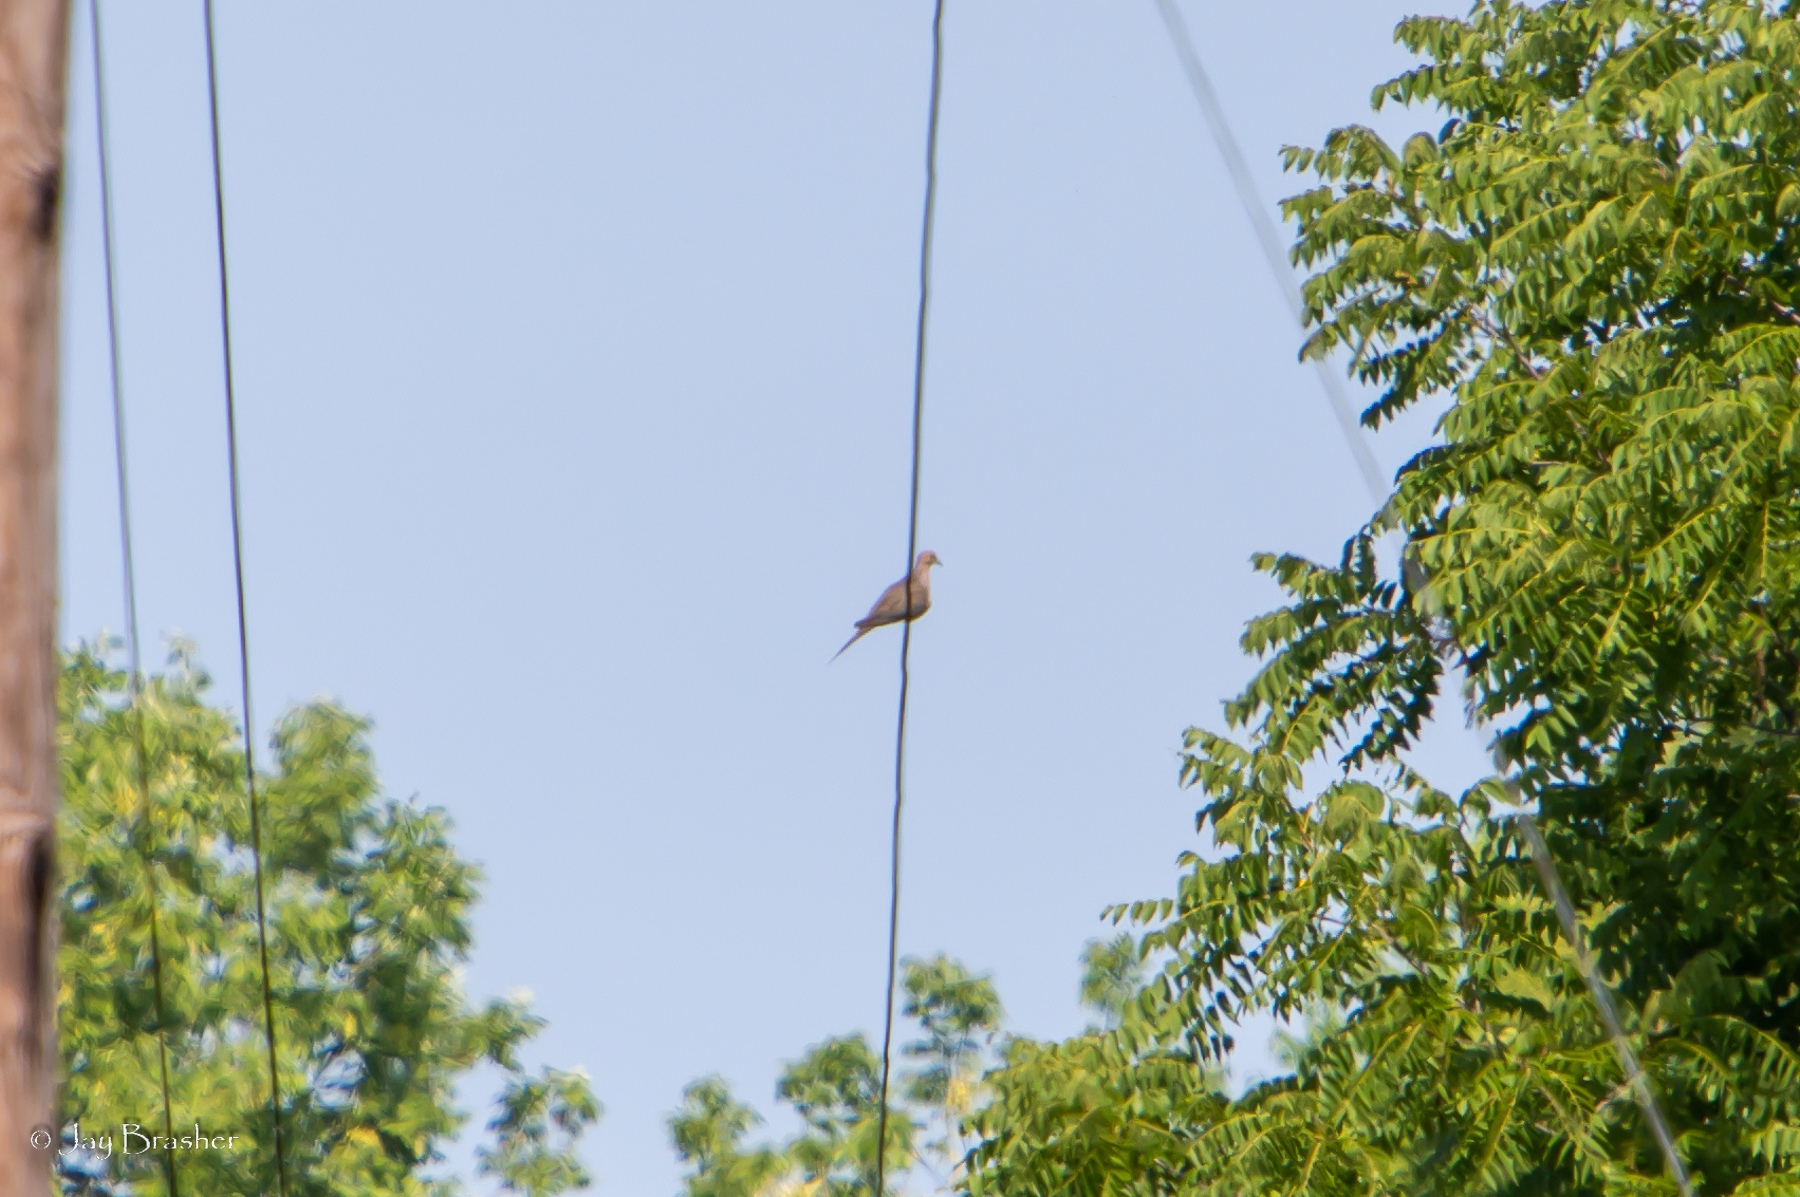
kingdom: Animalia
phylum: Chordata
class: Aves
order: Columbiformes
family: Columbidae
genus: Zenaida
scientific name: Zenaida macroura
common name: Mourning dove
